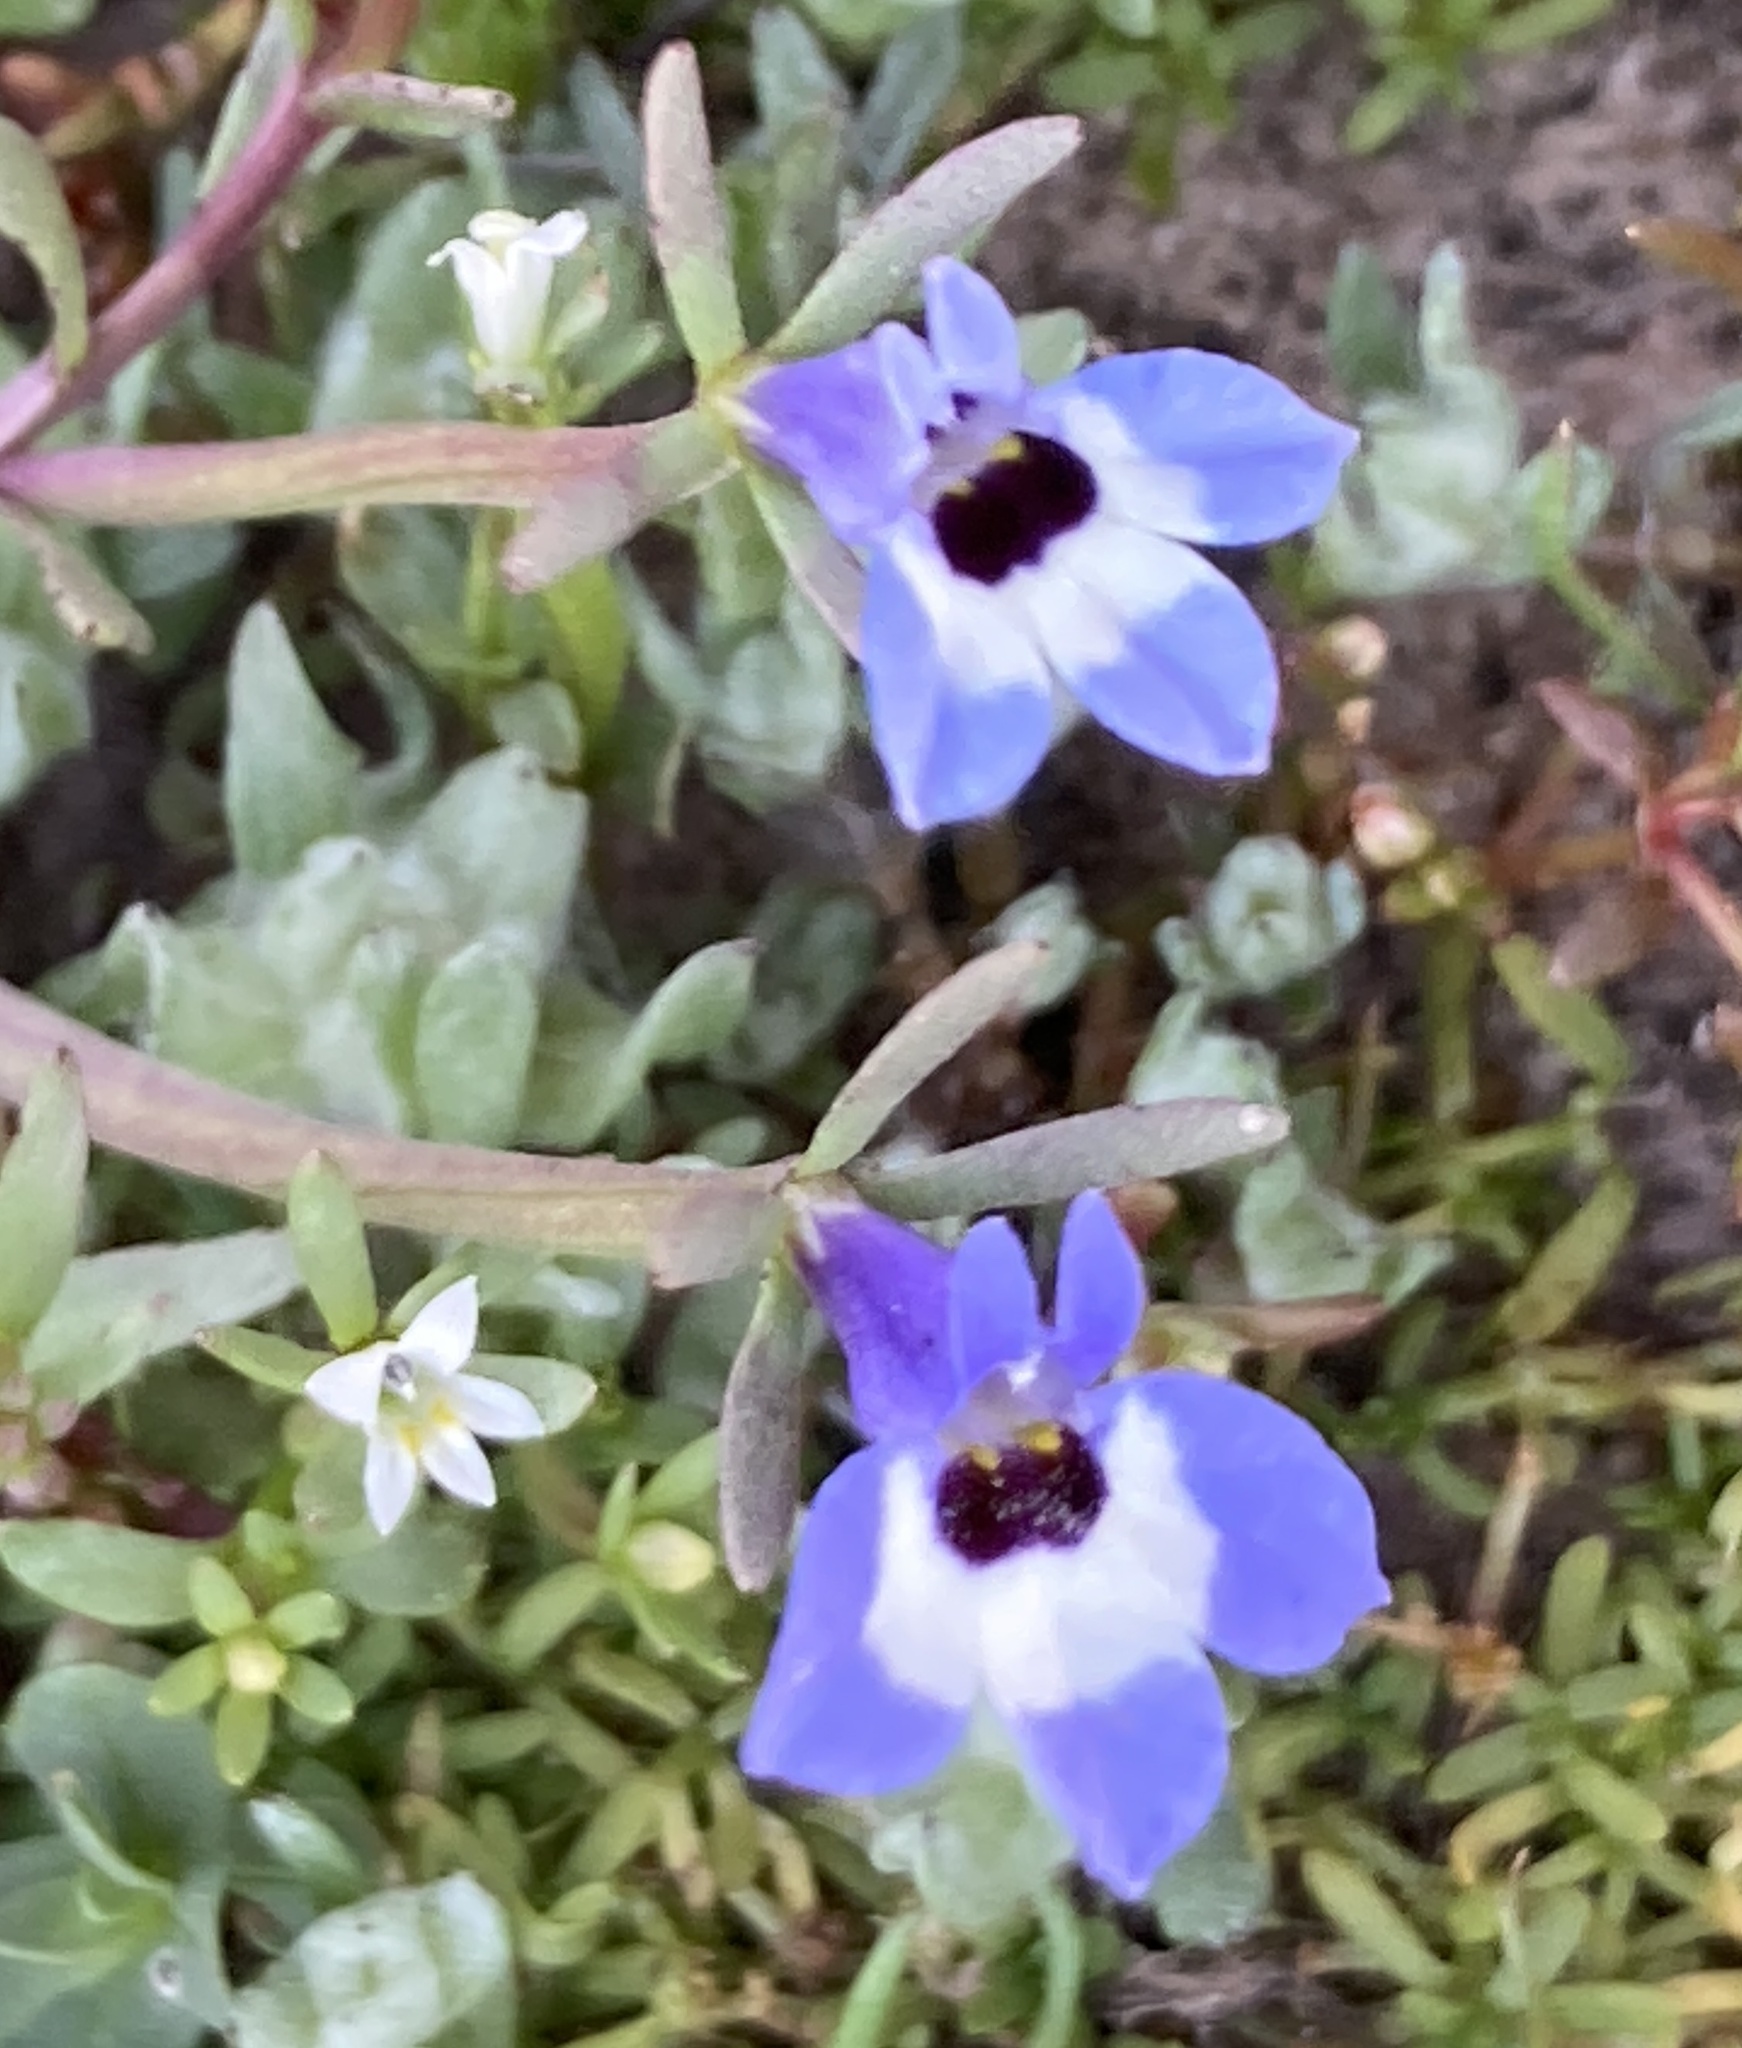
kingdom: Plantae
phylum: Tracheophyta
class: Magnoliopsida
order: Asterales
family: Campanulaceae
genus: Downingia
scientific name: Downingia concolor
